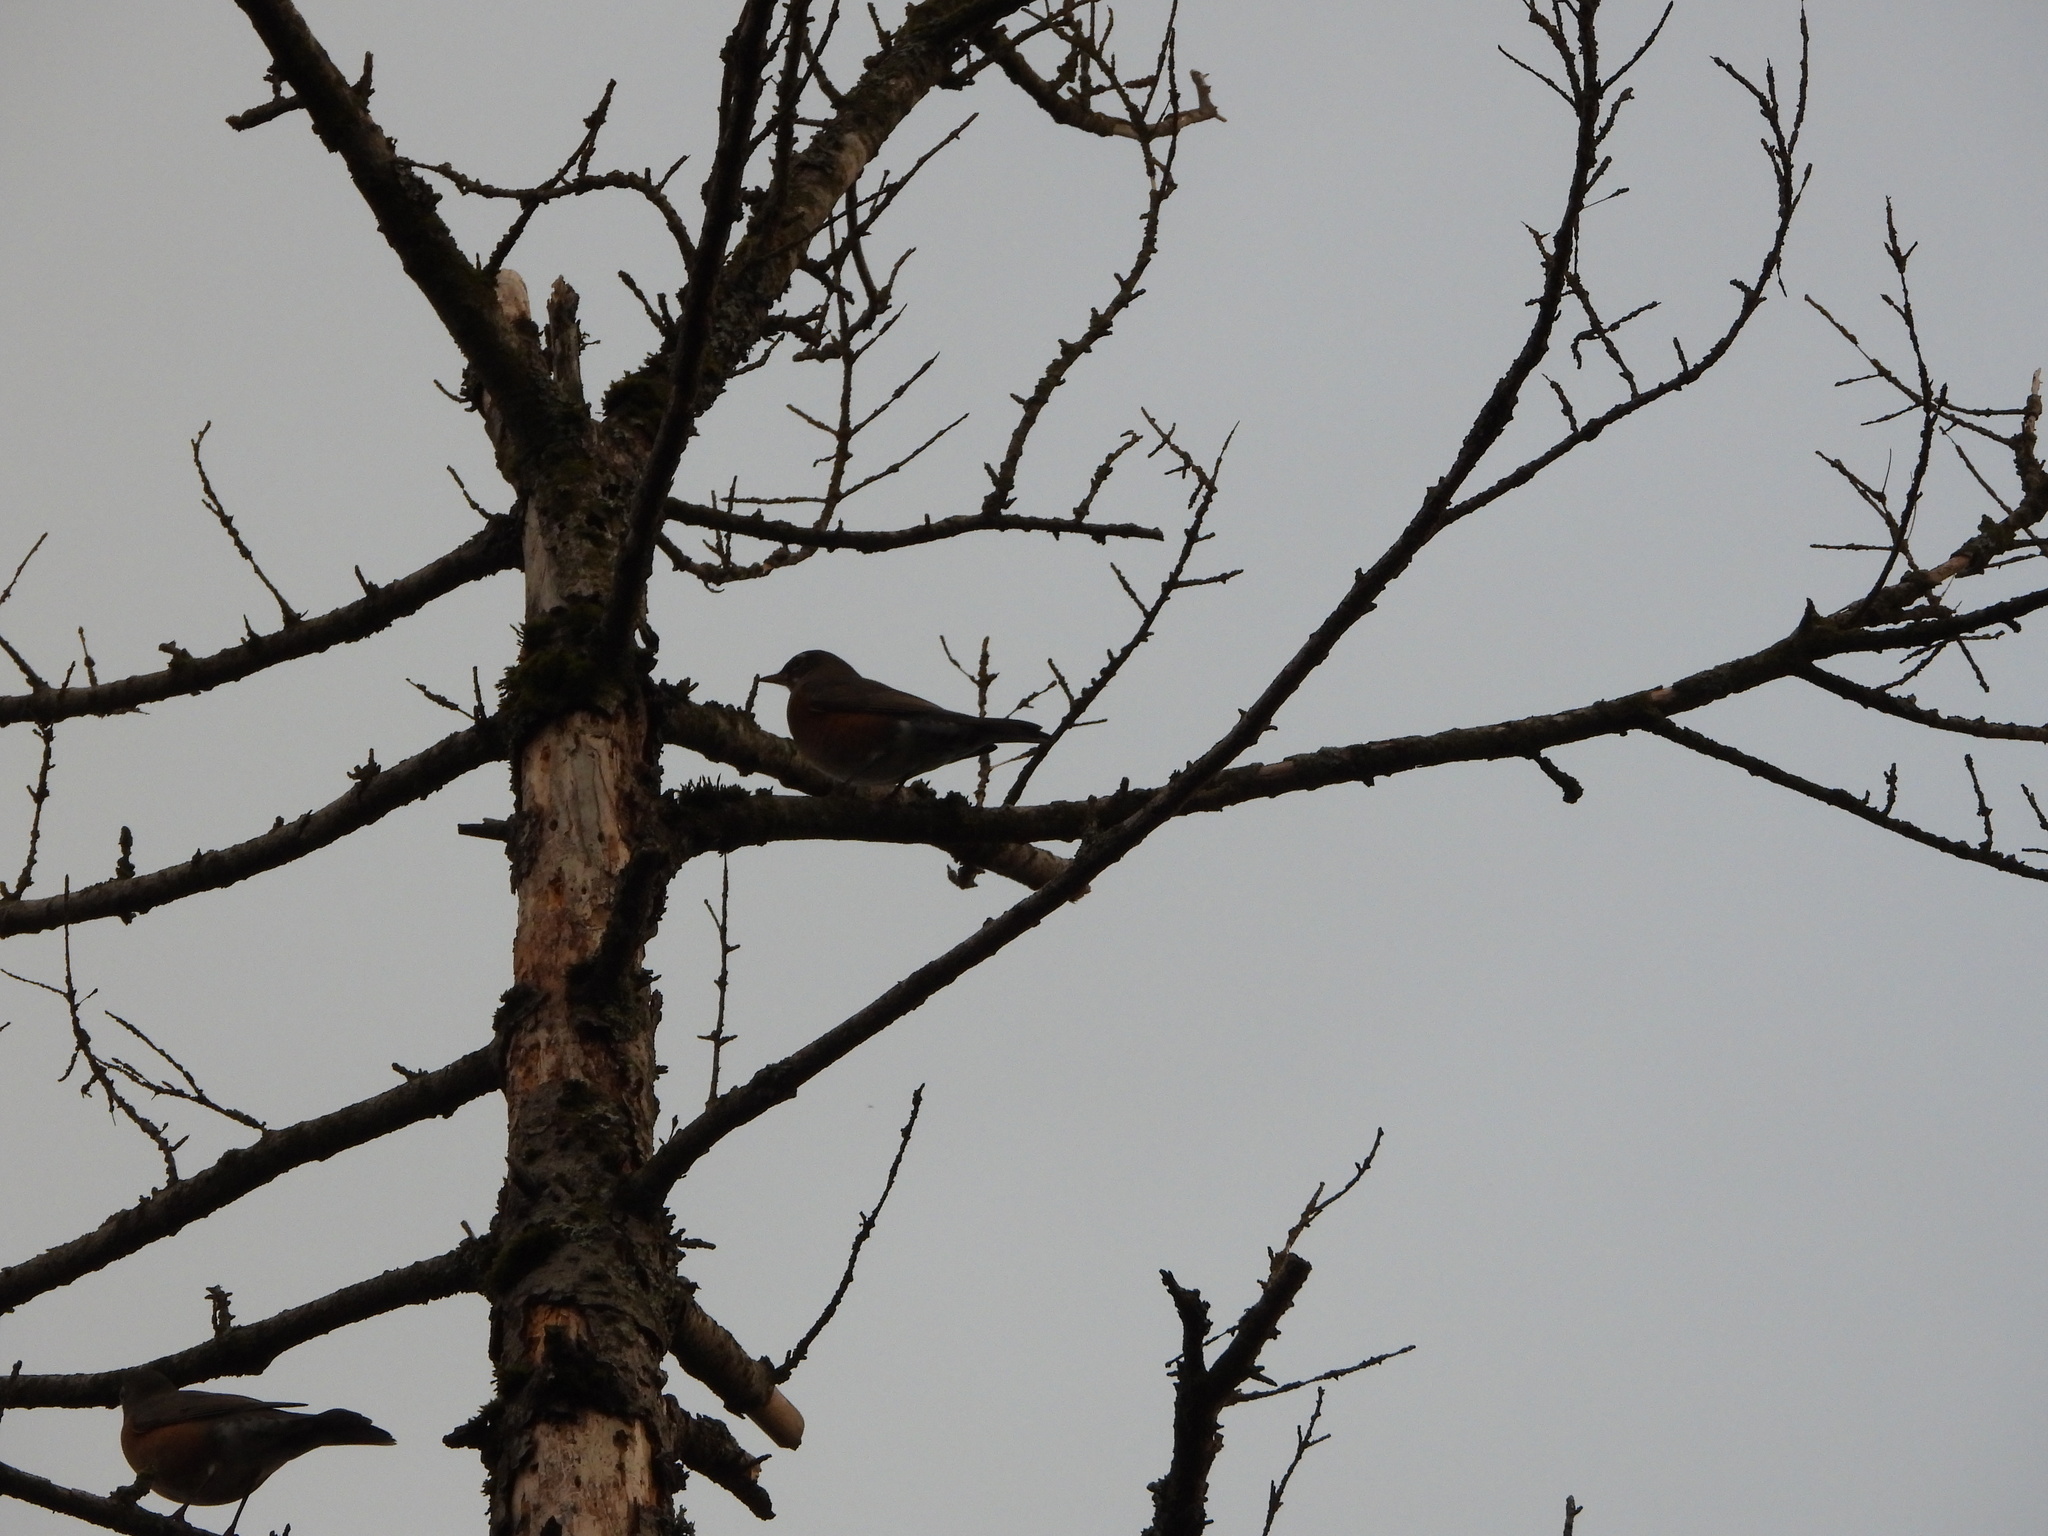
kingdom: Animalia
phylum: Chordata
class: Aves
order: Passeriformes
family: Turdidae
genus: Turdus
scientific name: Turdus migratorius
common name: American robin
